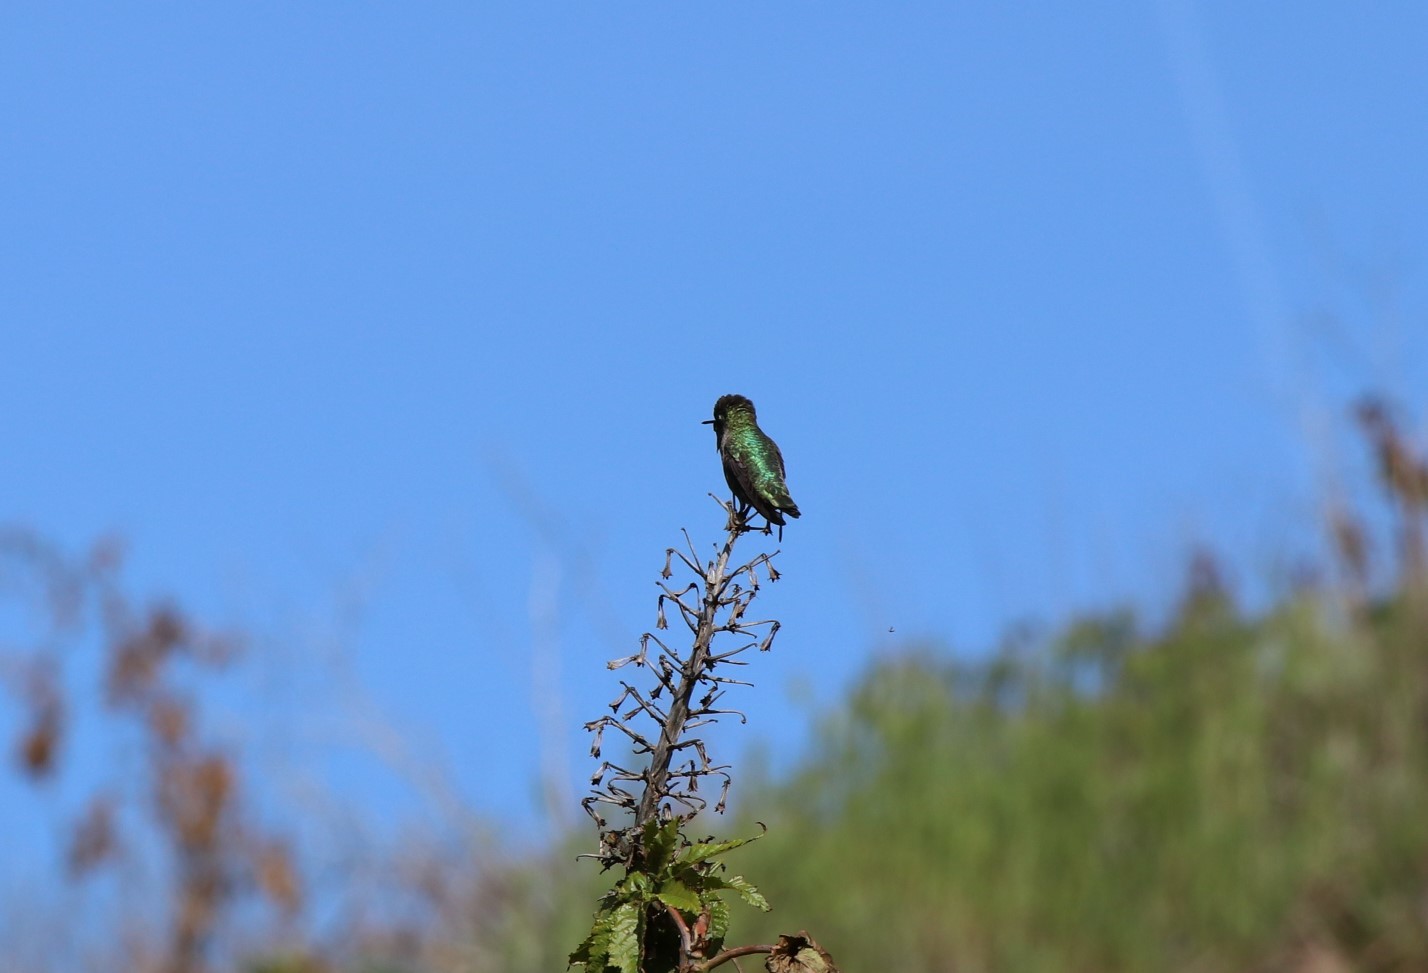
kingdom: Animalia
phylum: Chordata
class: Aves
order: Apodiformes
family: Trochilidae
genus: Calypte
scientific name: Calypte anna
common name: Anna's hummingbird
